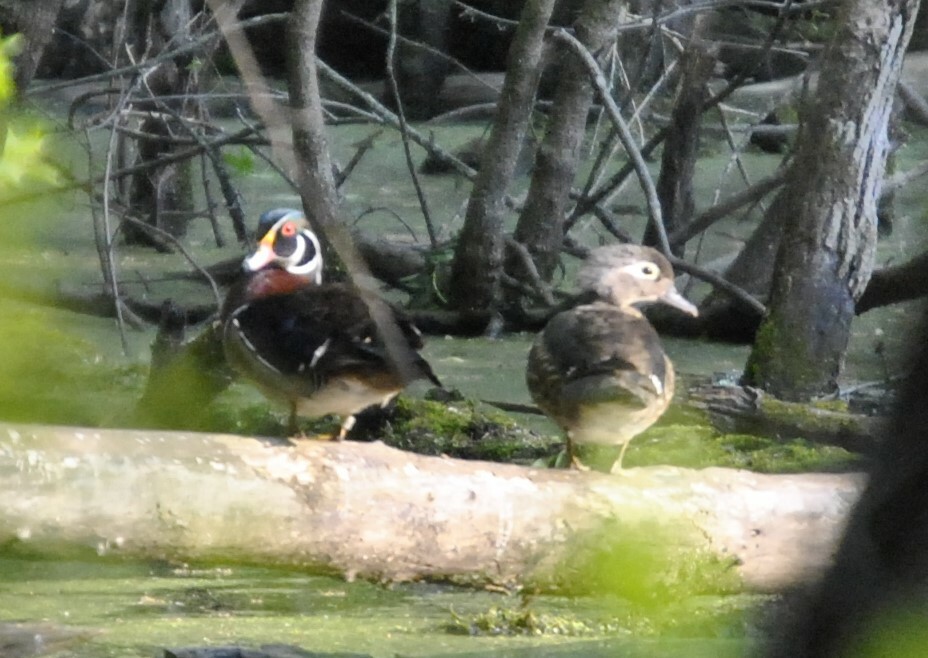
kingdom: Animalia
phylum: Chordata
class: Aves
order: Anseriformes
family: Anatidae
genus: Aix
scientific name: Aix sponsa
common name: Wood duck
